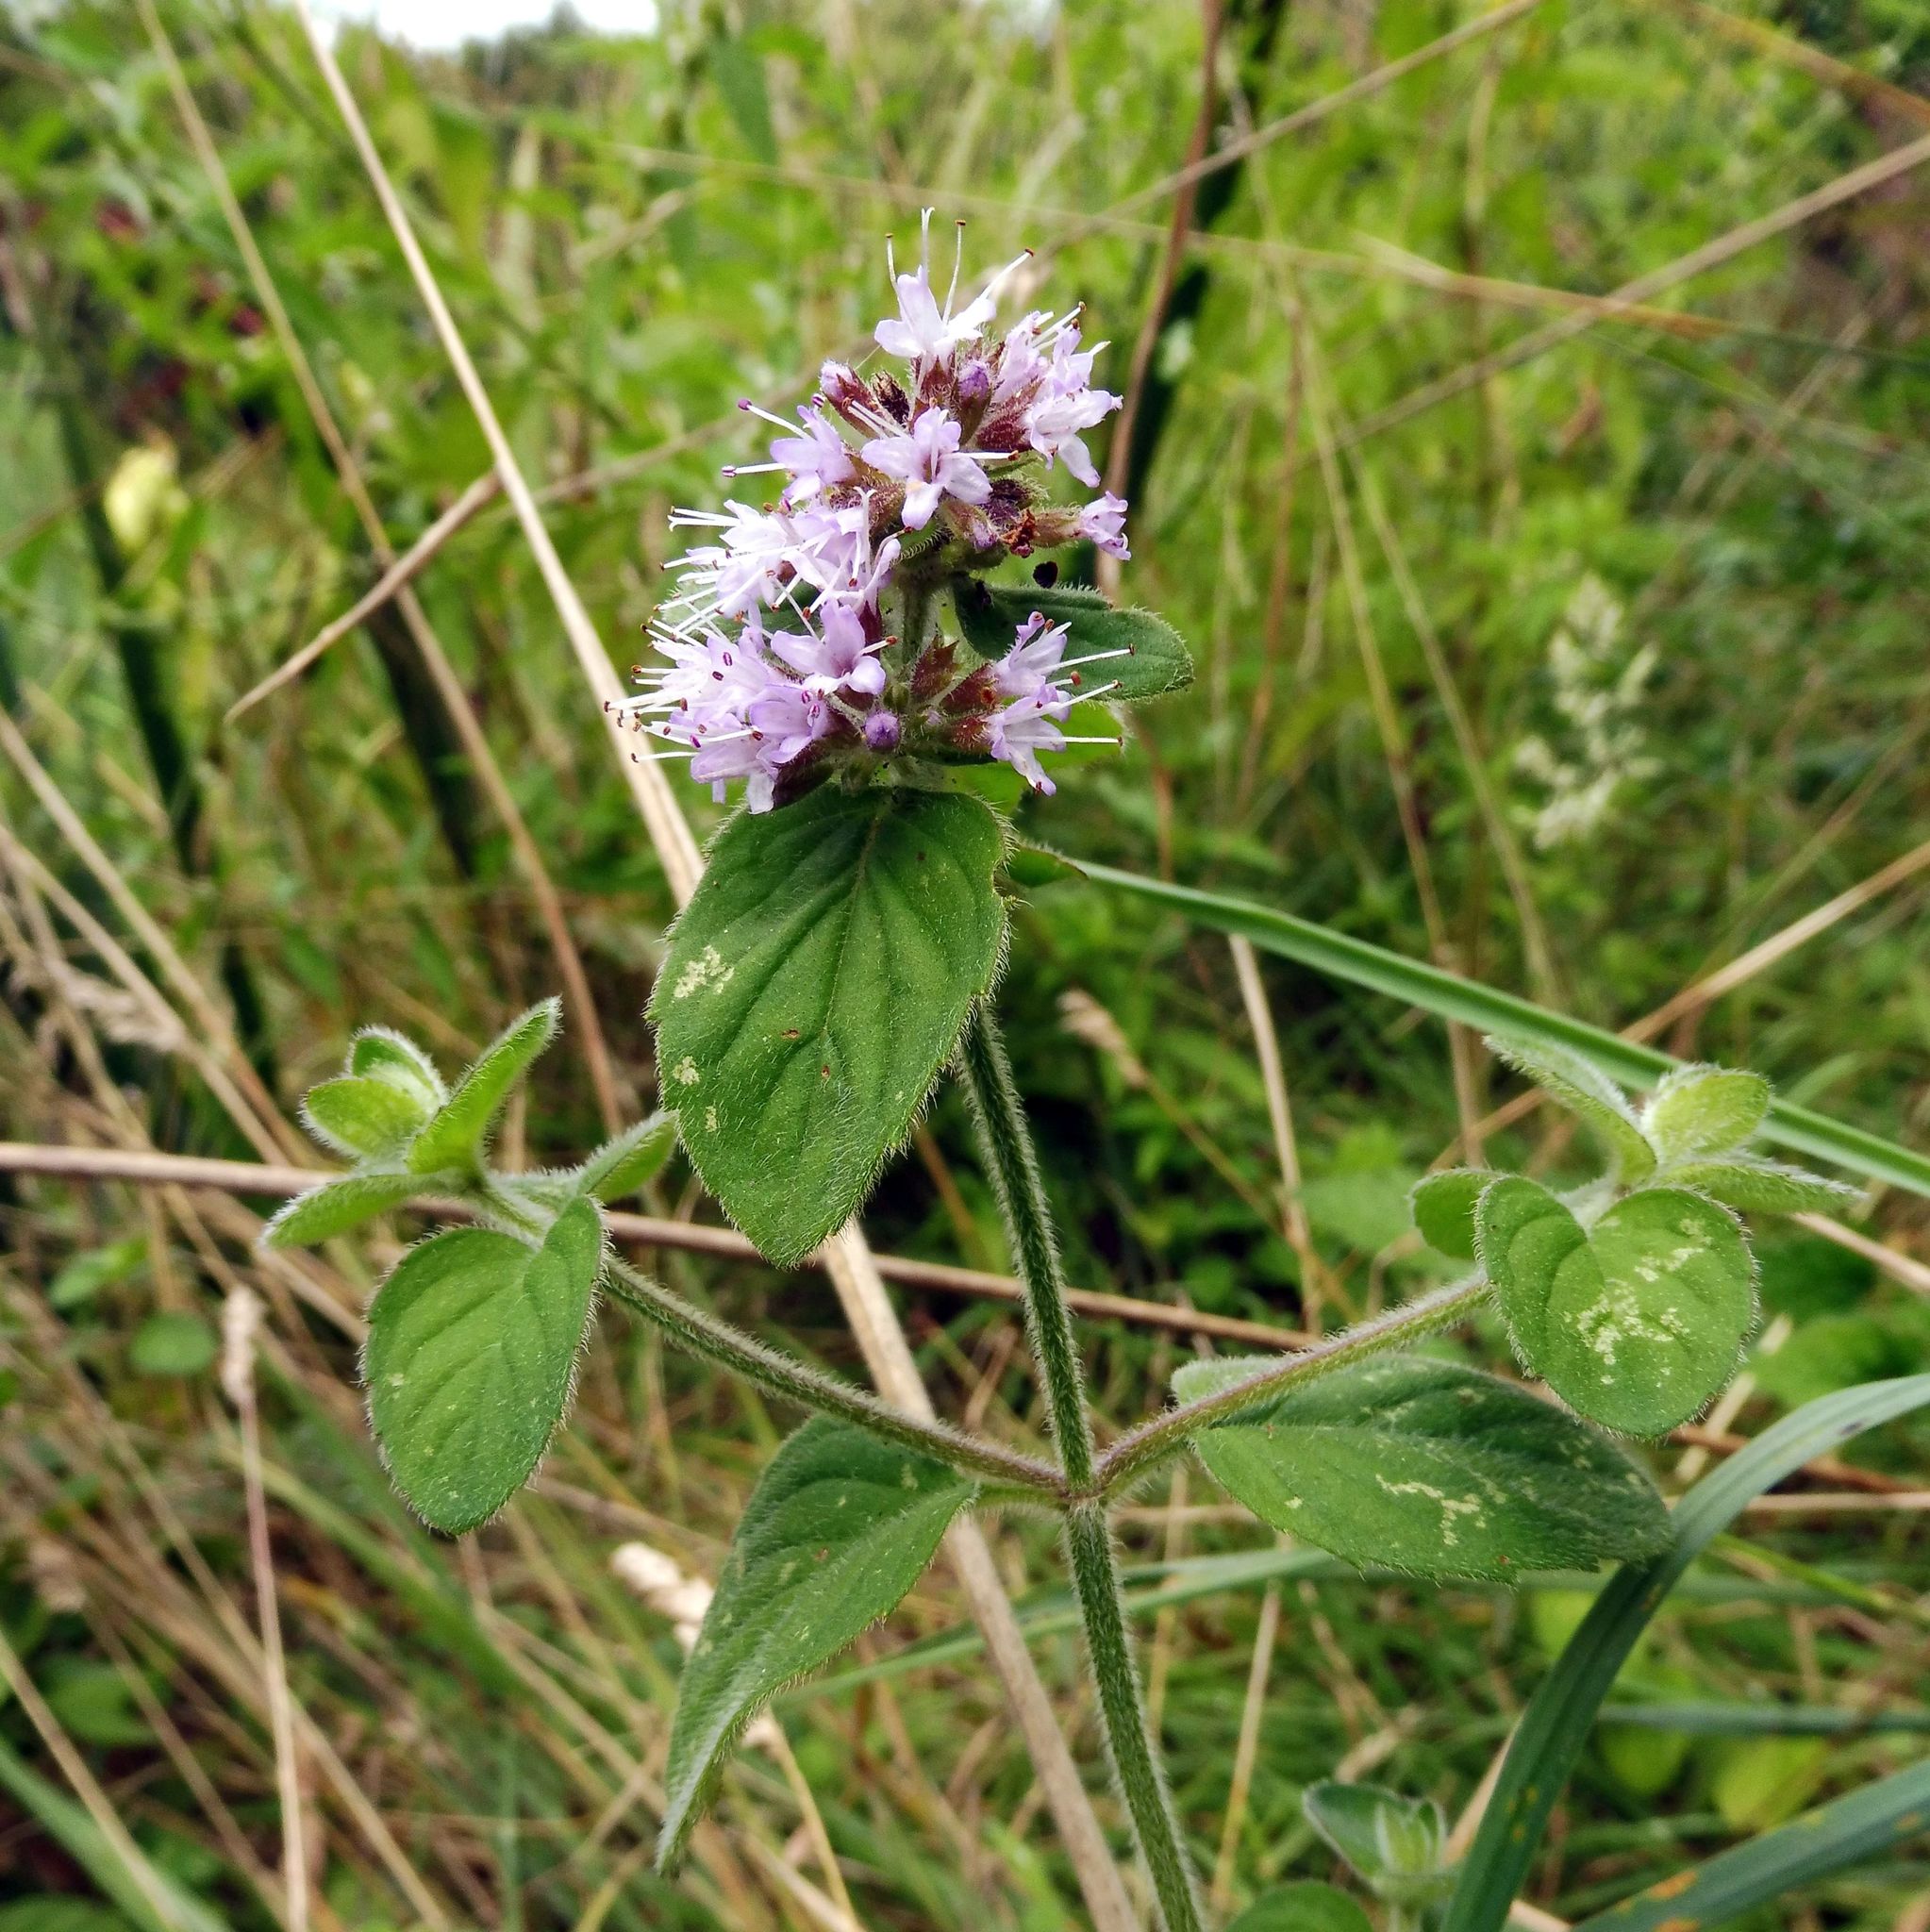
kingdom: Plantae
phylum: Tracheophyta
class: Magnoliopsida
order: Lamiales
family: Lamiaceae
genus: Mentha
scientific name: Mentha aquatica
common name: Water mint
